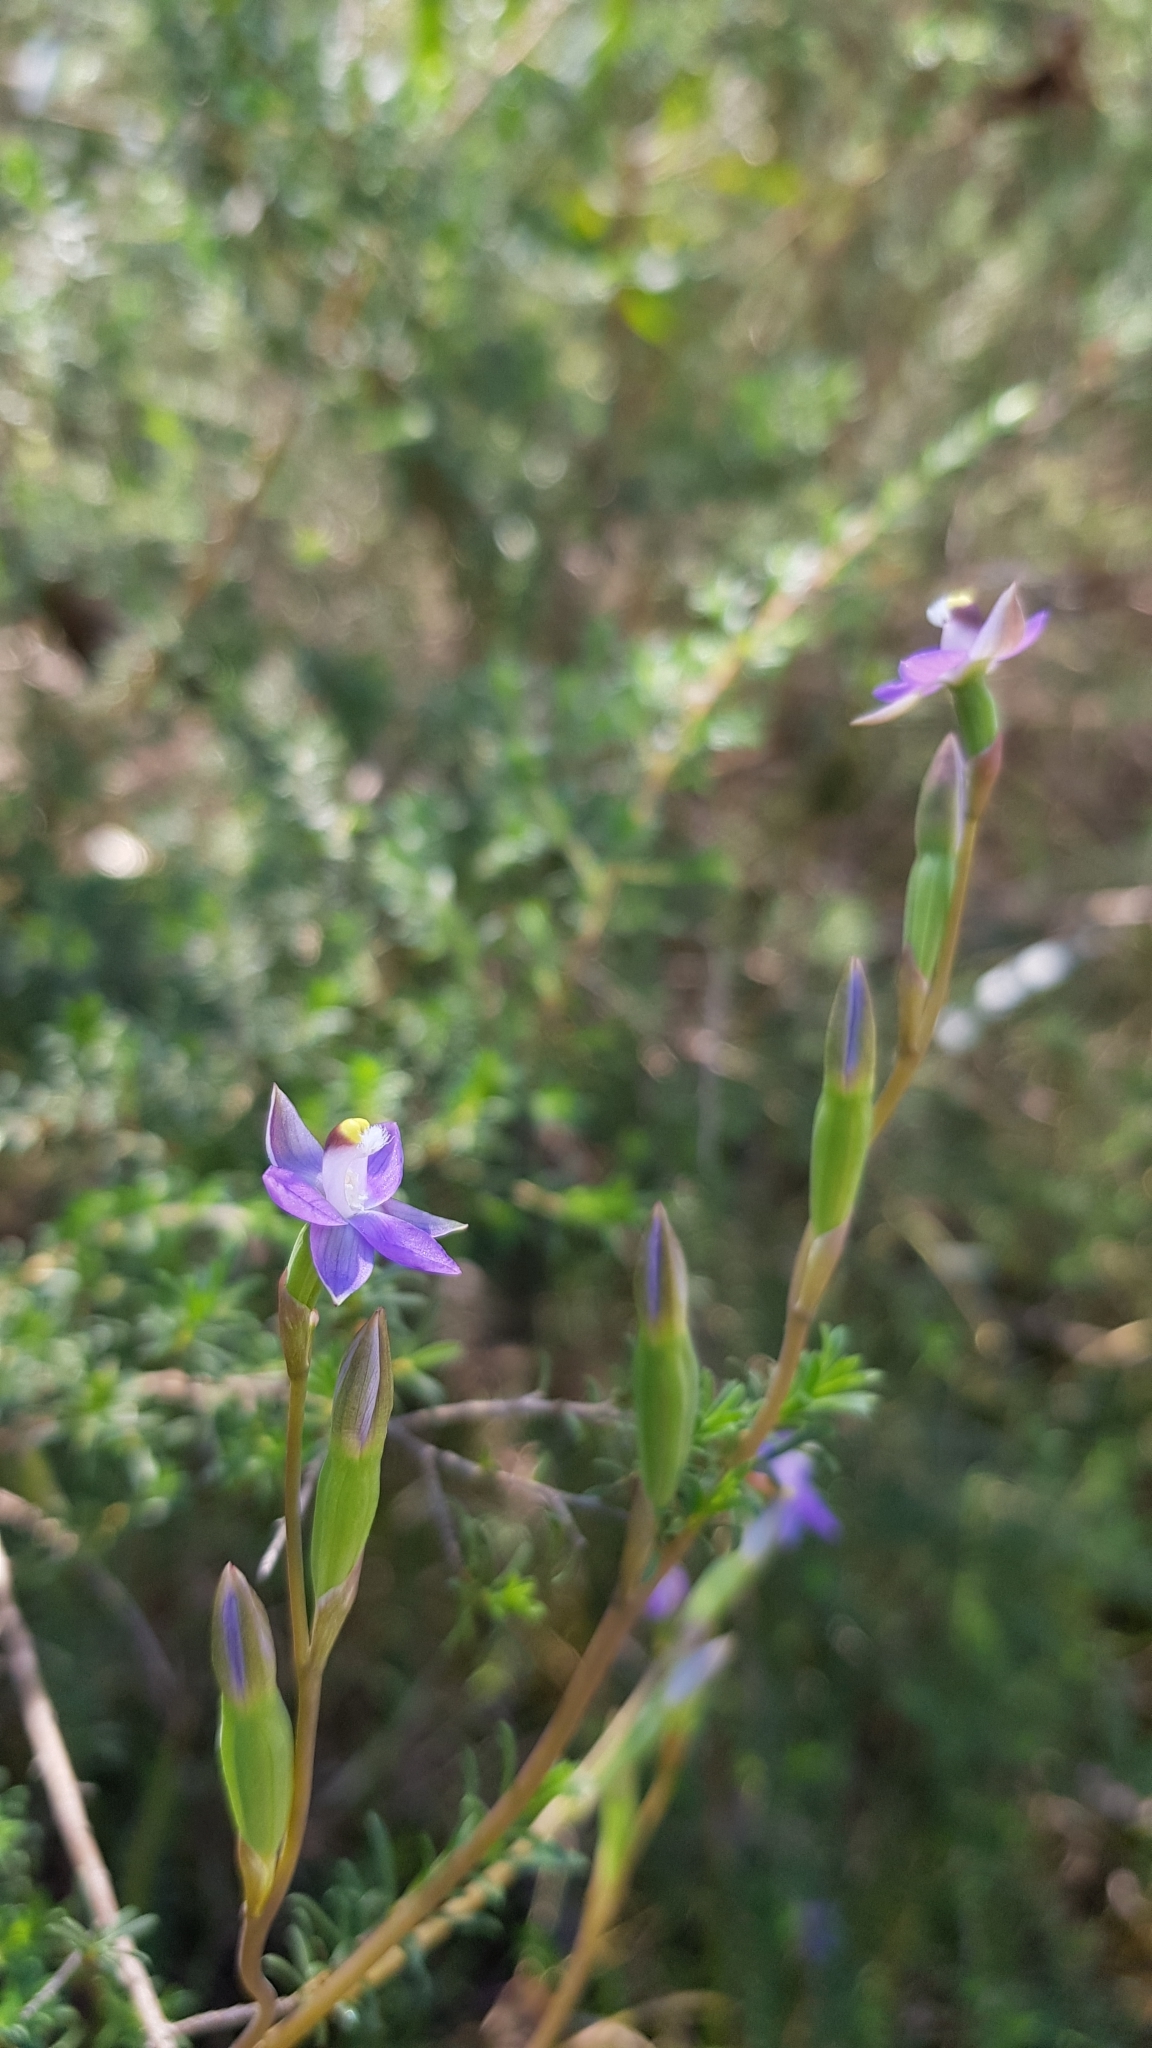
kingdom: Plantae
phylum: Tracheophyta
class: Liliopsida
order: Asparagales
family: Orchidaceae
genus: Thelymitra
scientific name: Thelymitra peniculata
